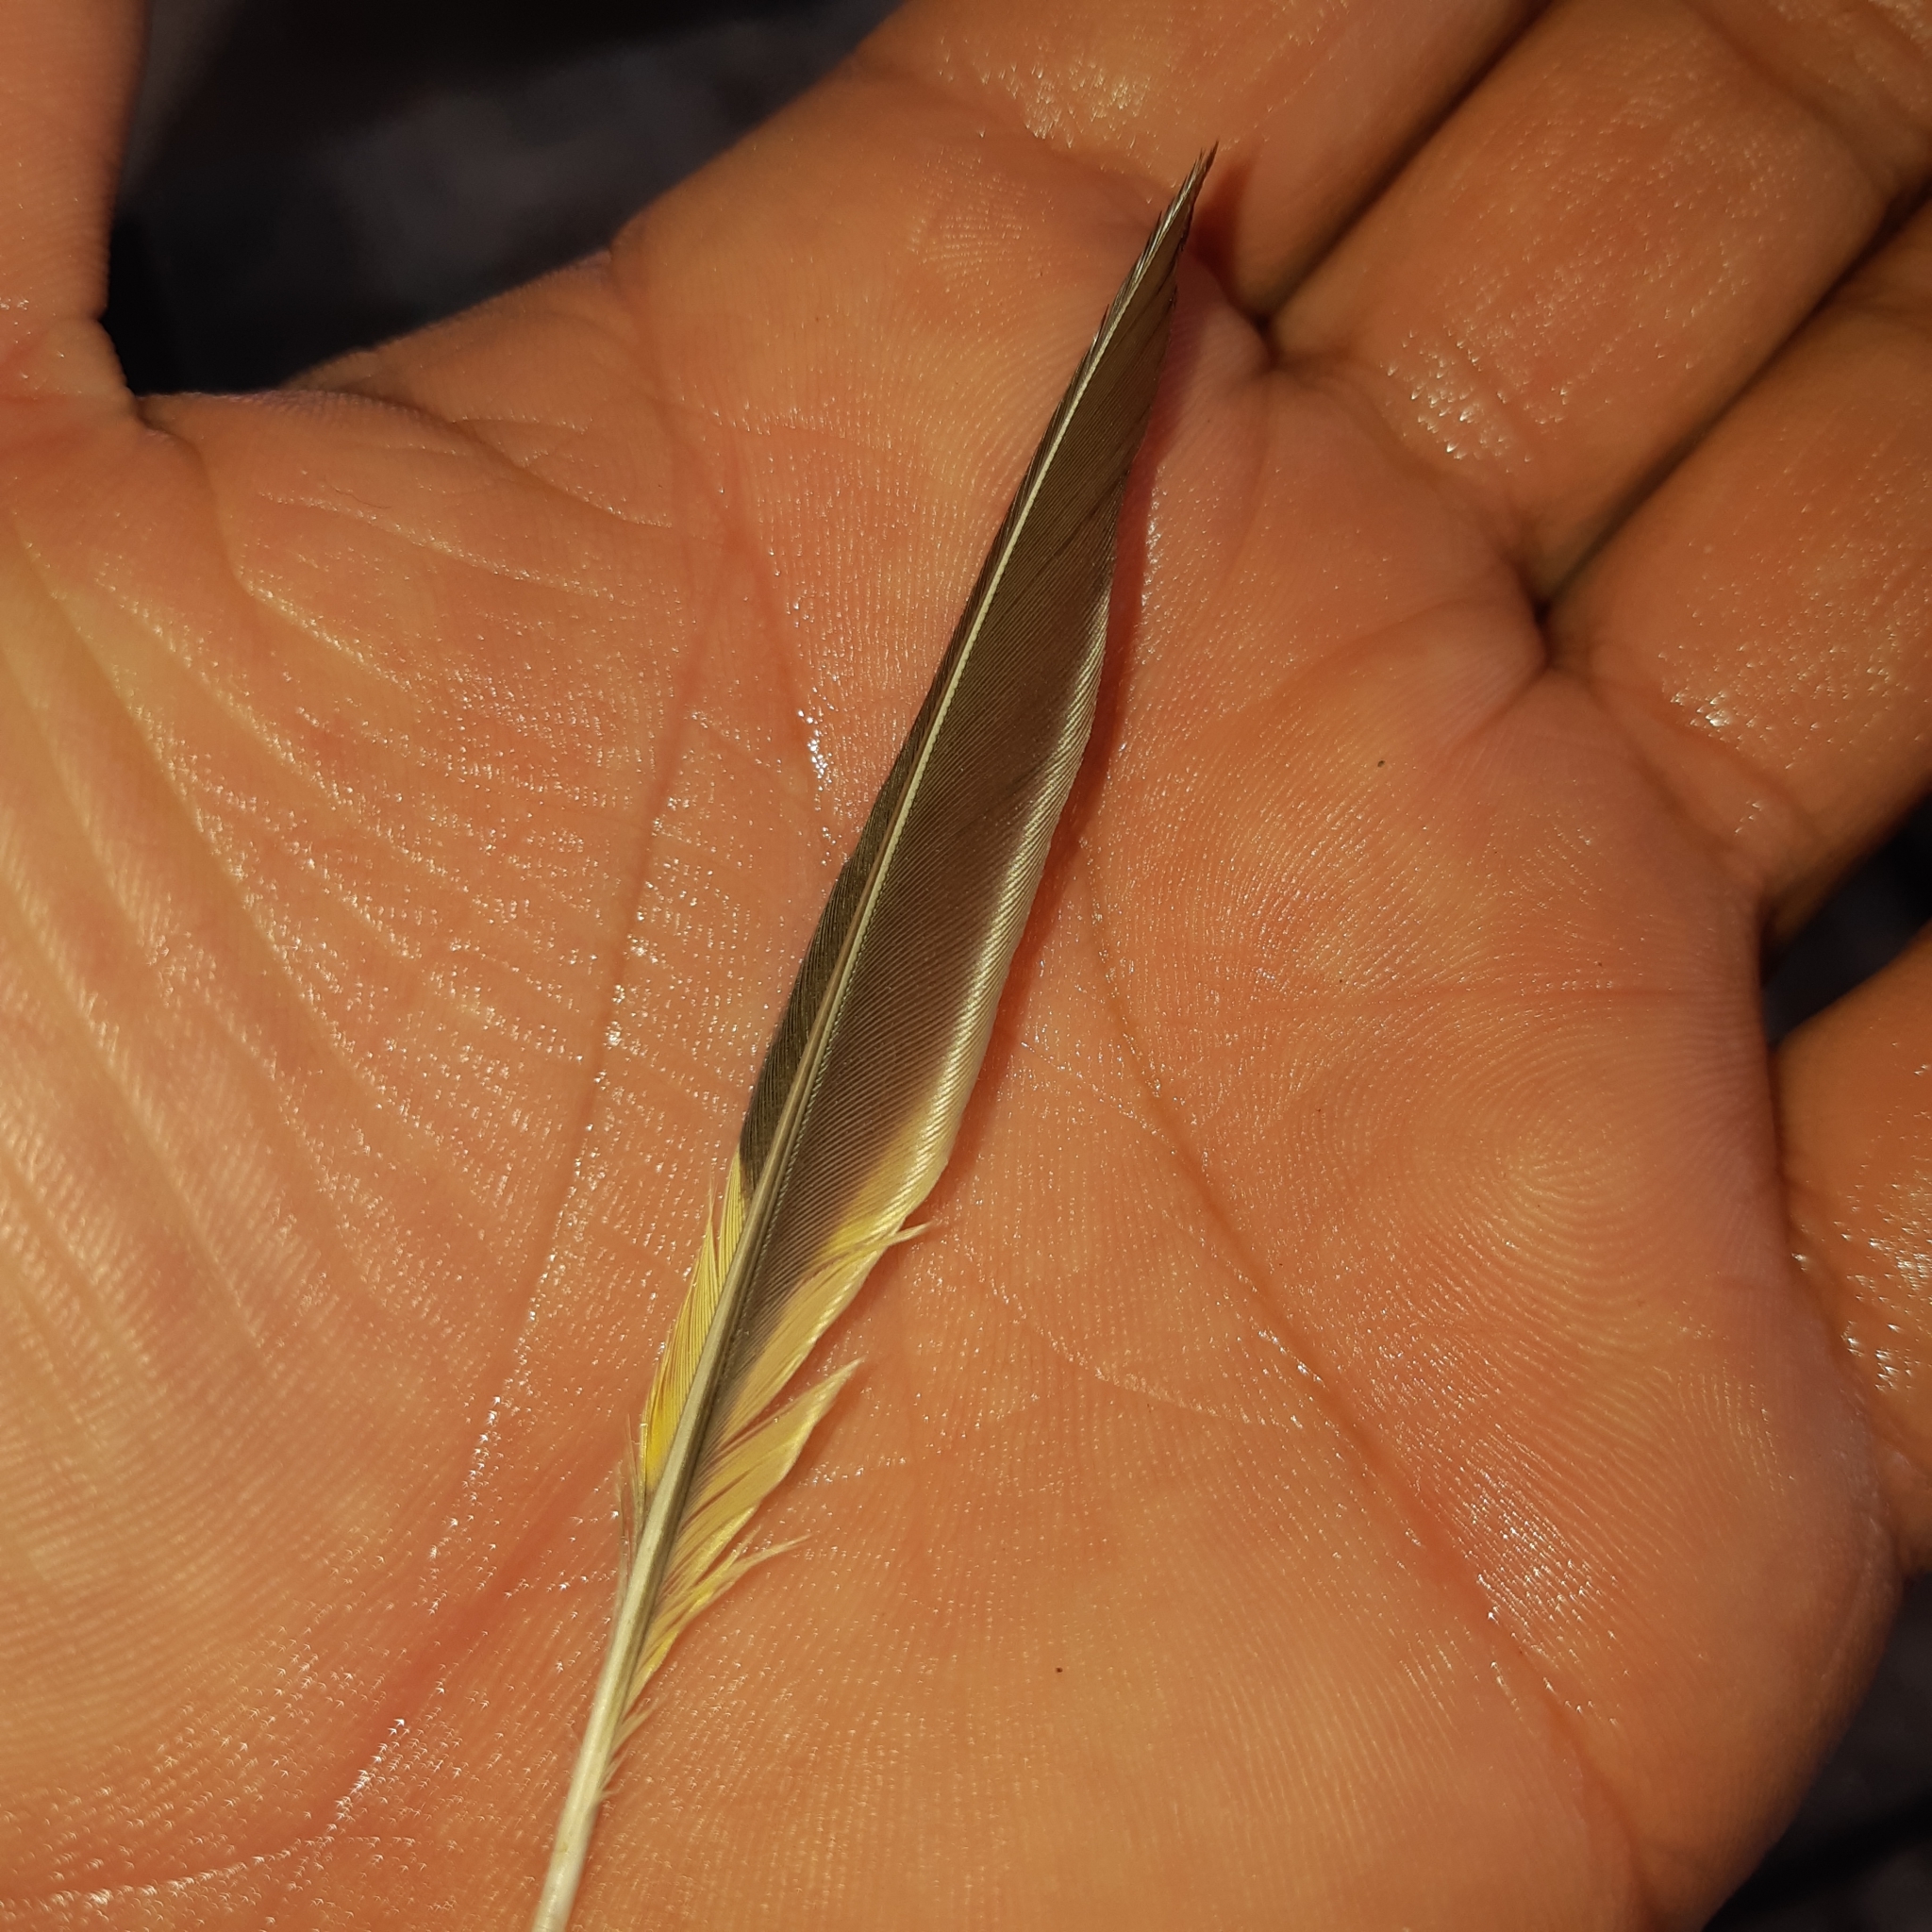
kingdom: Animalia
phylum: Chordata
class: Aves
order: Passeriformes
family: Thraupidae
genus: Thraupis
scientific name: Thraupis abbas
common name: Yellow-winged tanager
